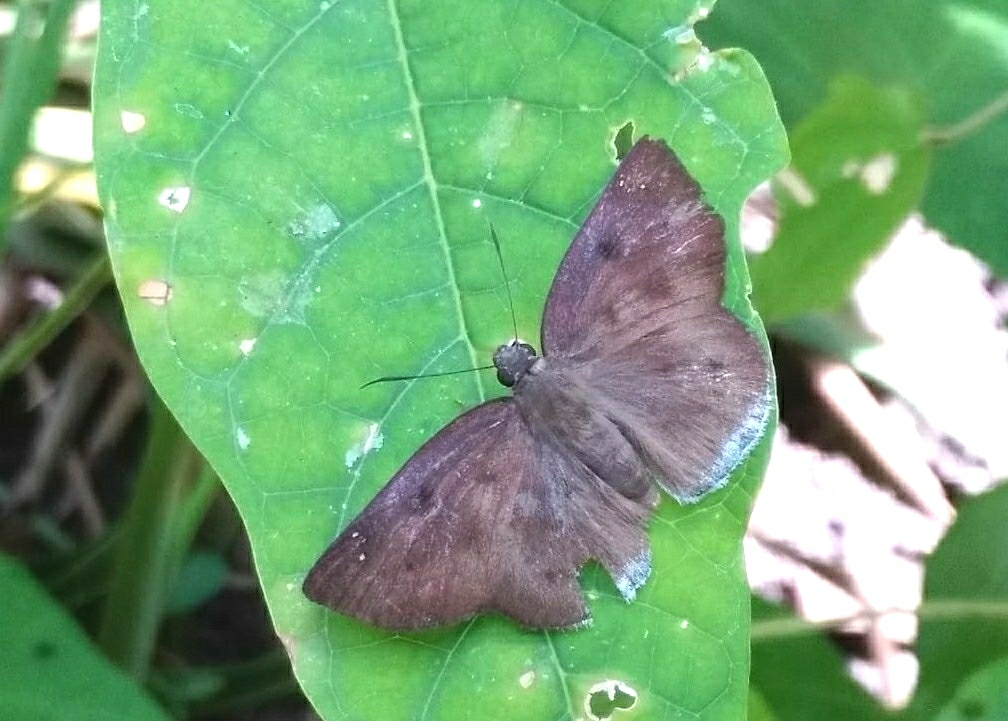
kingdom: Animalia
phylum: Arthropoda
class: Insecta
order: Lepidoptera
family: Hesperiidae
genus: Tagiades
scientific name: Tagiades japetus
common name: Pied flat
